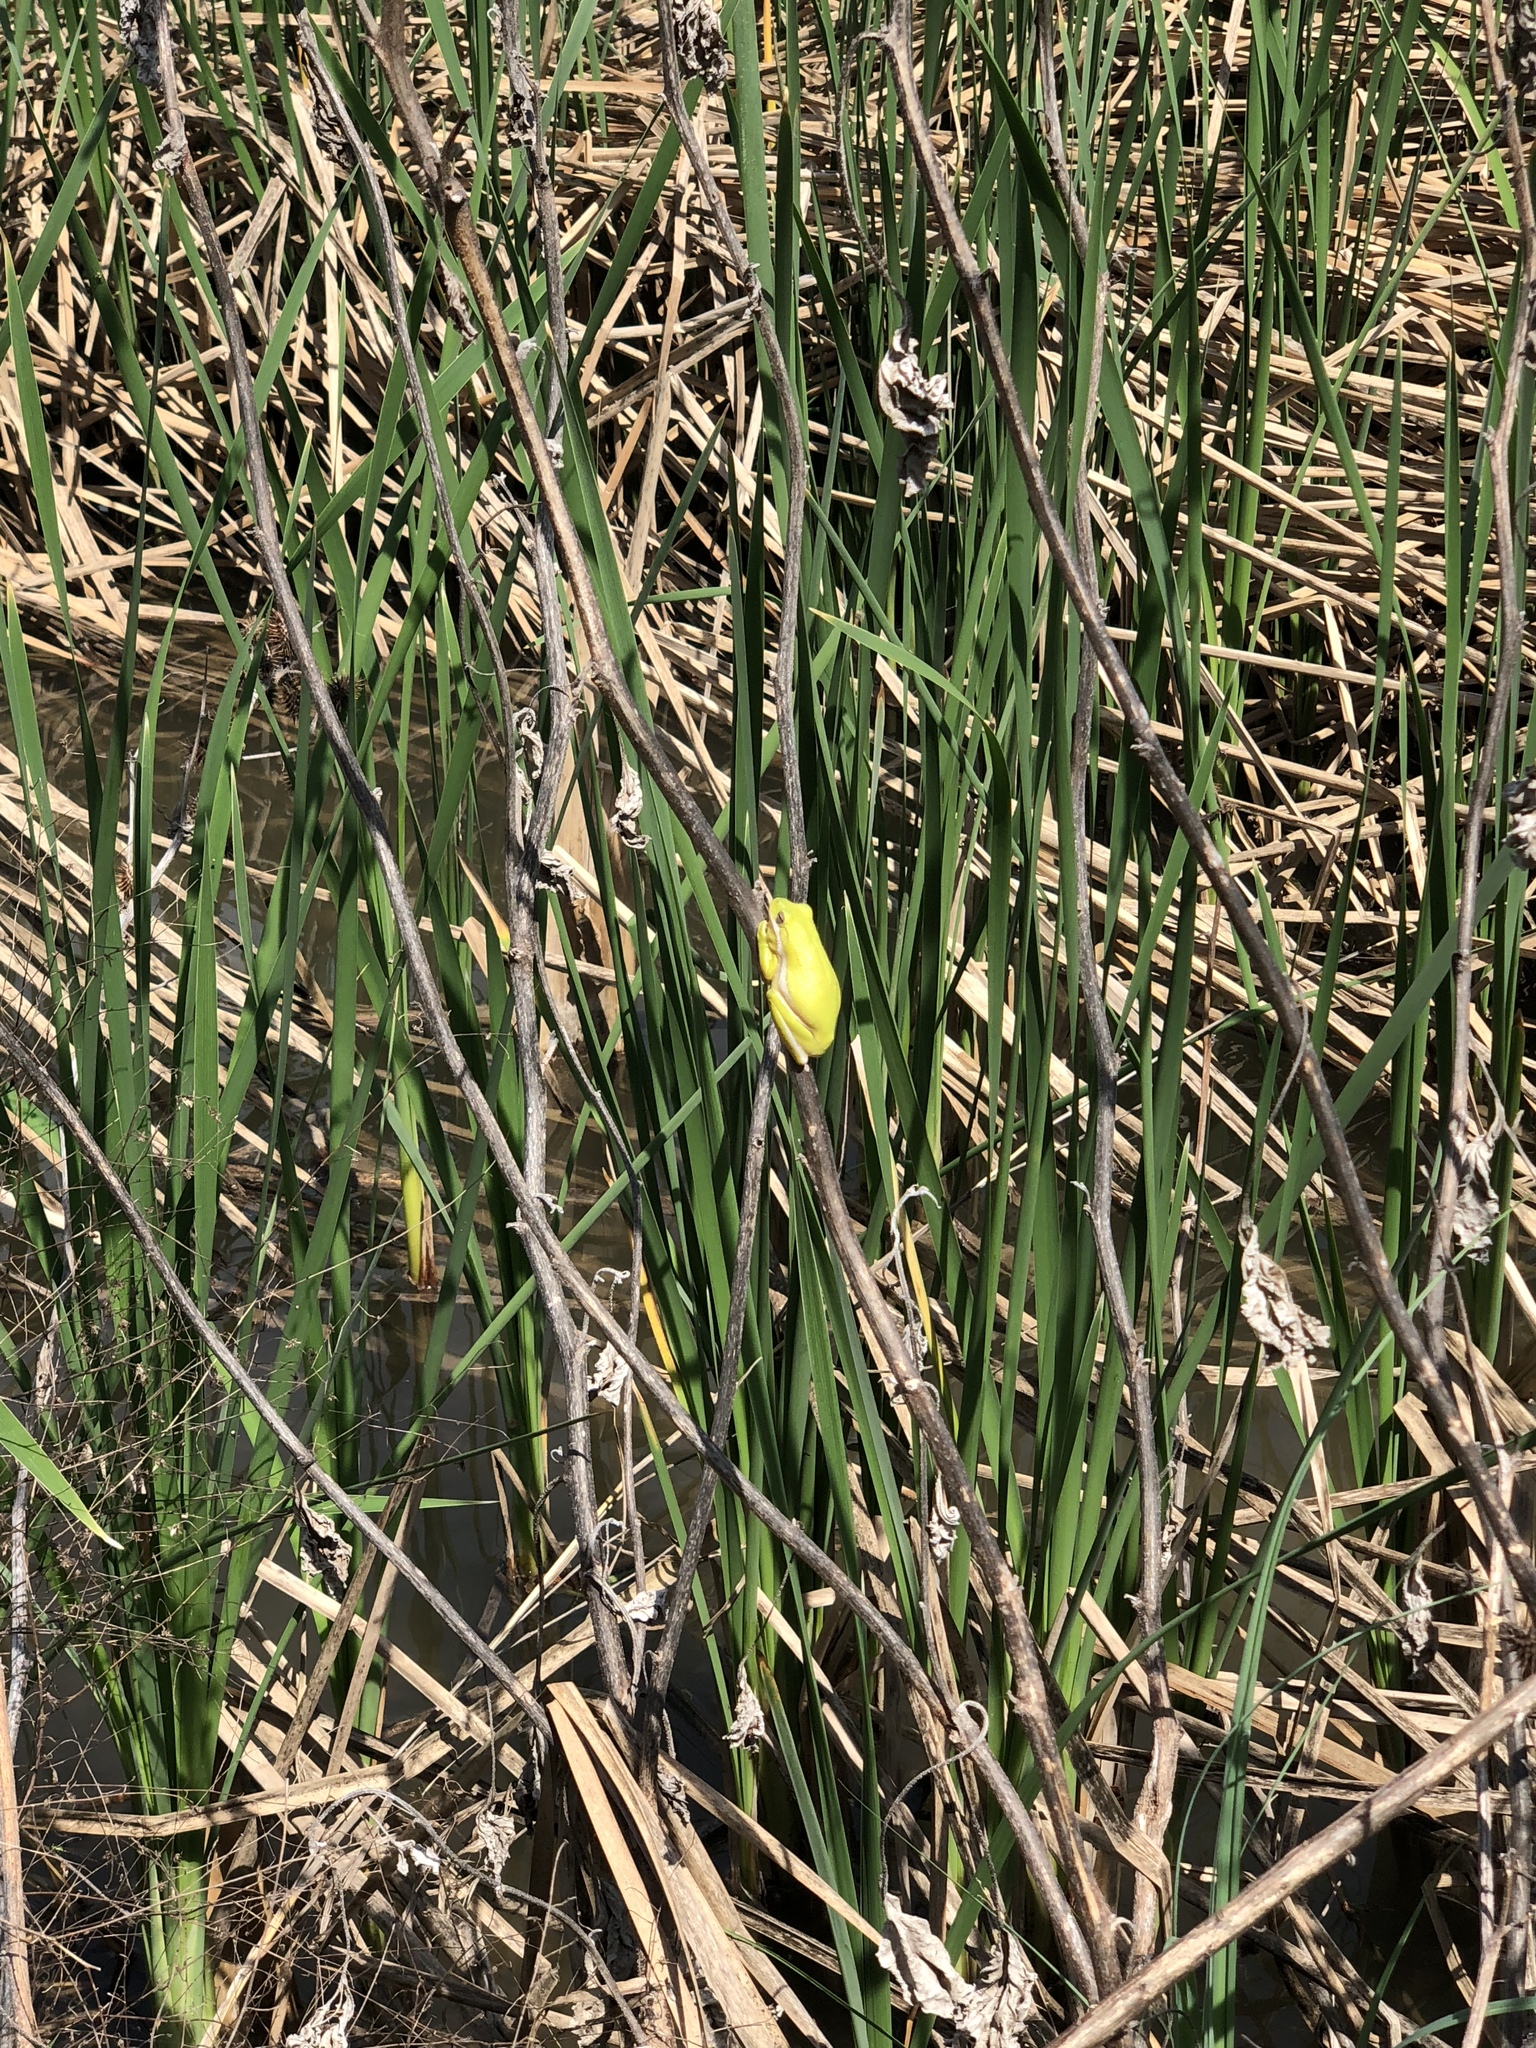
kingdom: Animalia
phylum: Chordata
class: Amphibia
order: Anura
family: Hylidae
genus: Dryophytes
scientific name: Dryophytes cinereus
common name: Green treefrog
